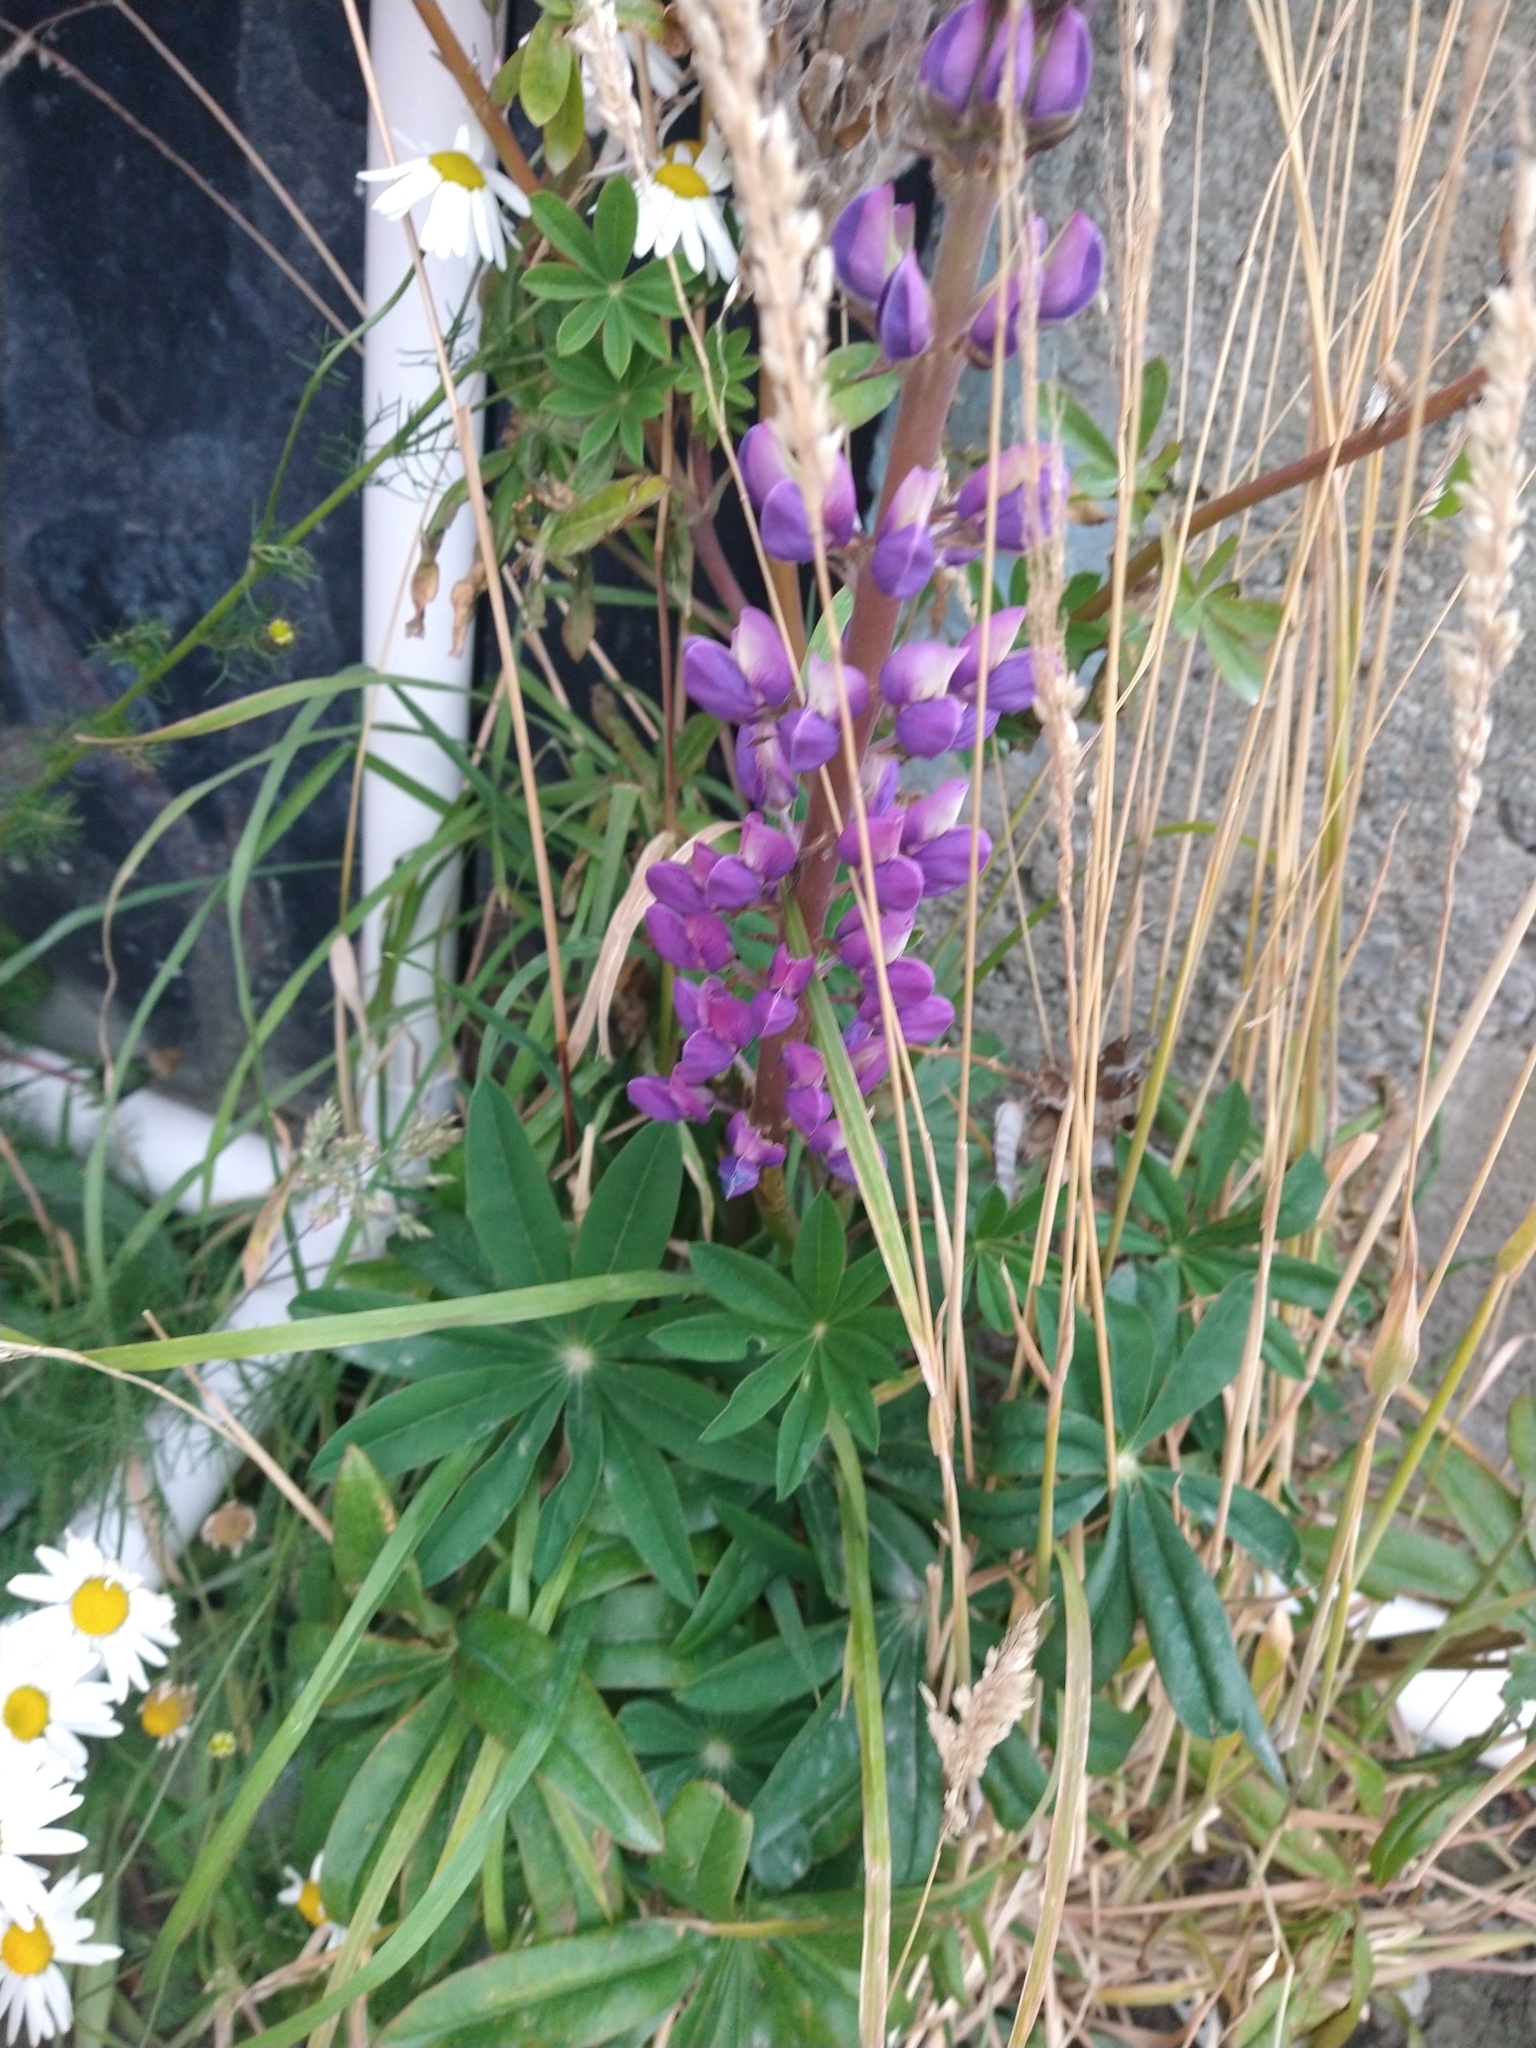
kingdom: Plantae
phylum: Tracheophyta
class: Magnoliopsida
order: Fabales
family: Fabaceae
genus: Lupinus
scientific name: Lupinus polyphyllus
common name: Garden lupin
